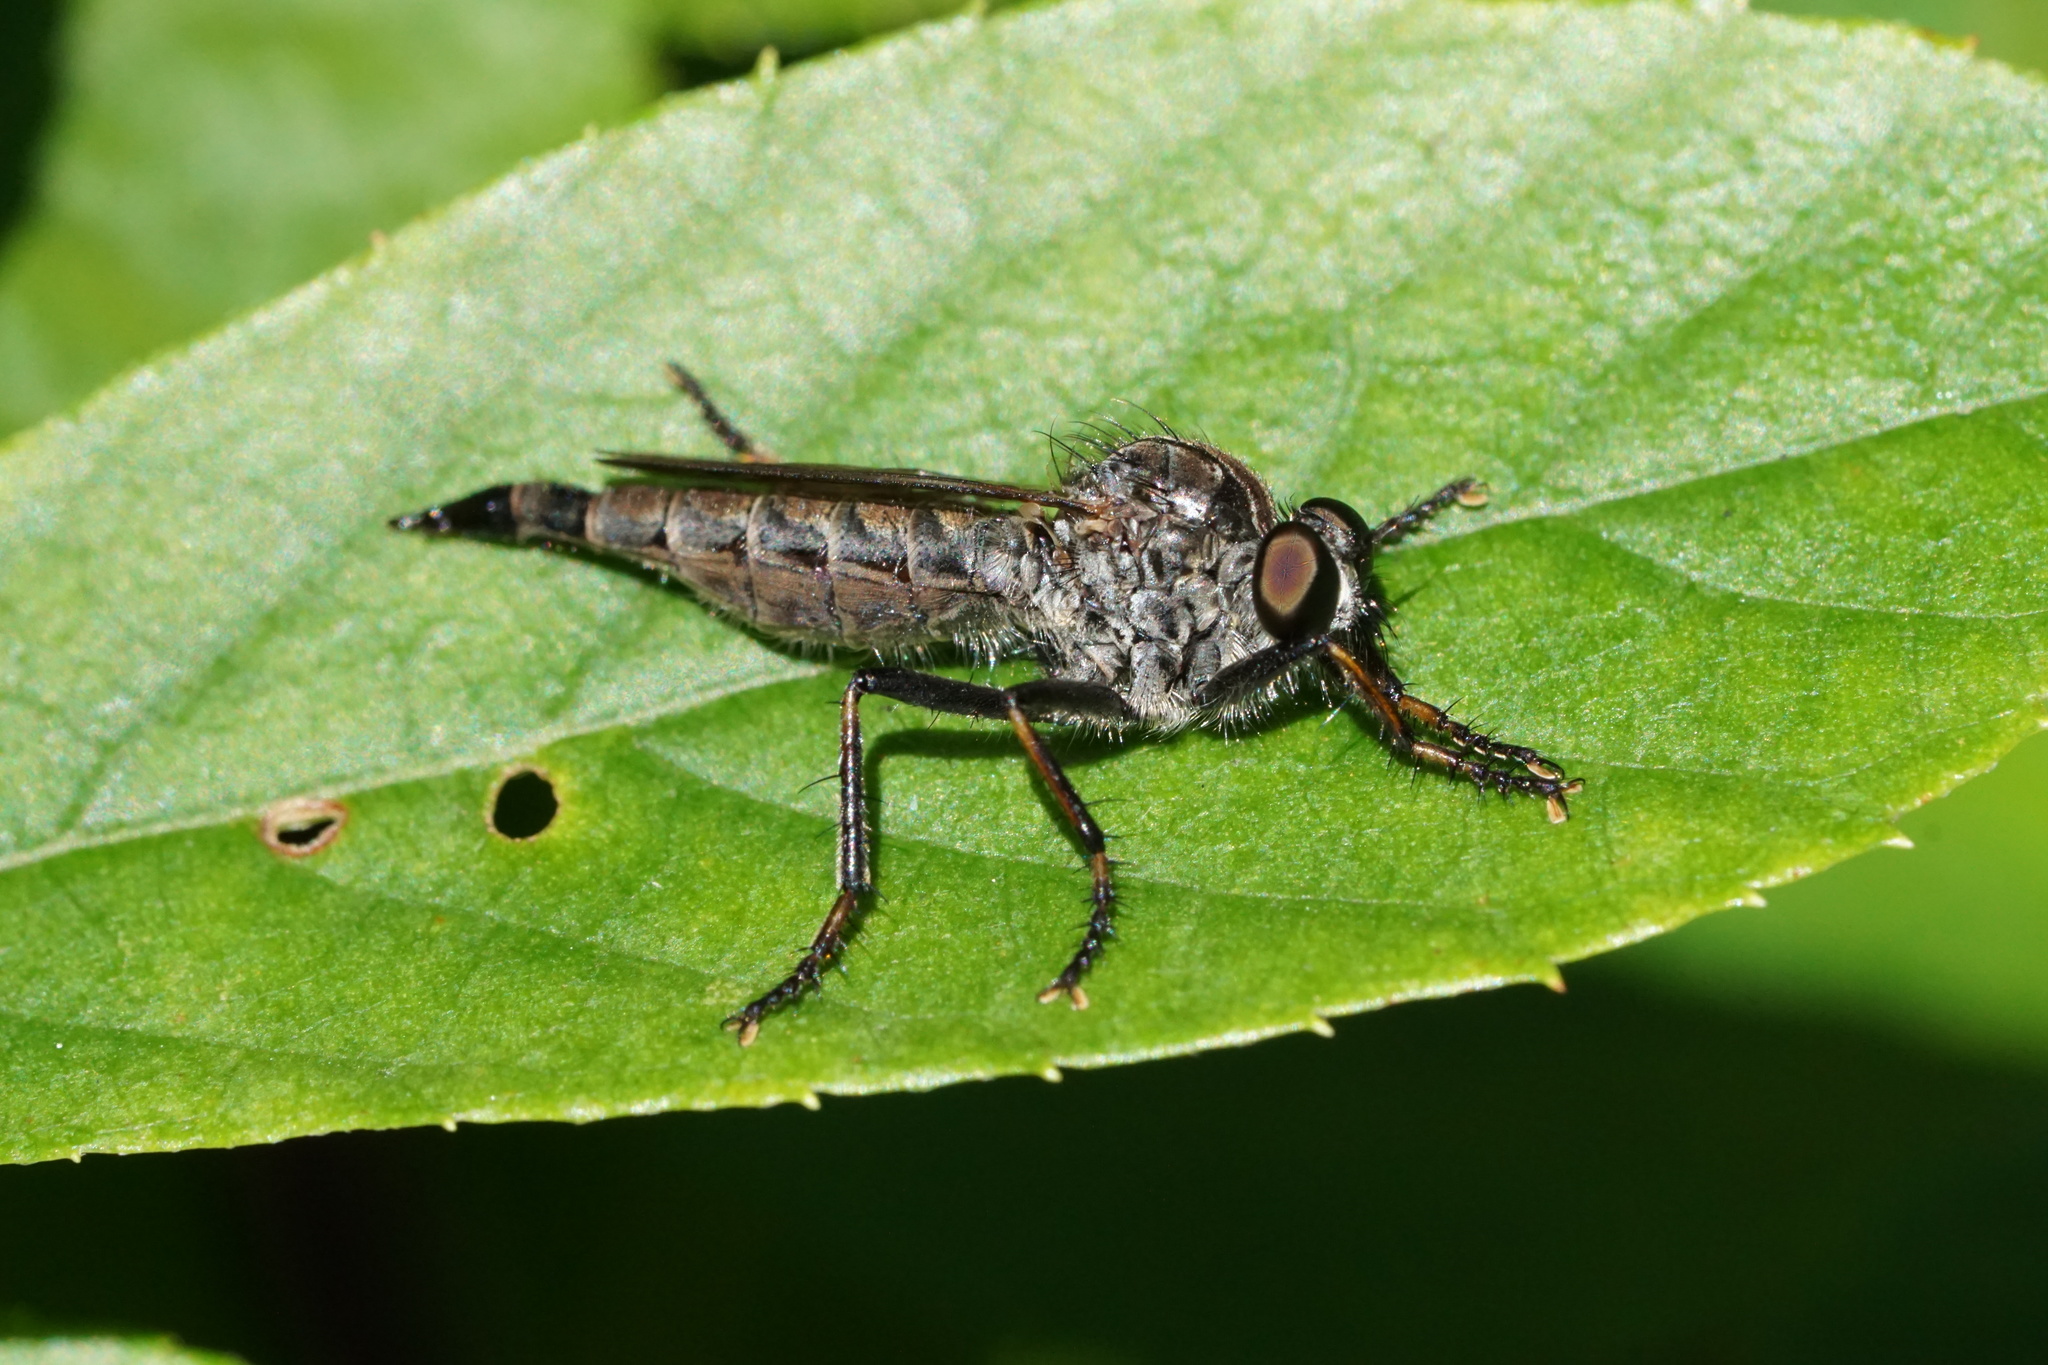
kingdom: Animalia
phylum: Arthropoda
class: Insecta
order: Diptera
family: Asilidae
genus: Machimus
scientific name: Machimus sadyates
